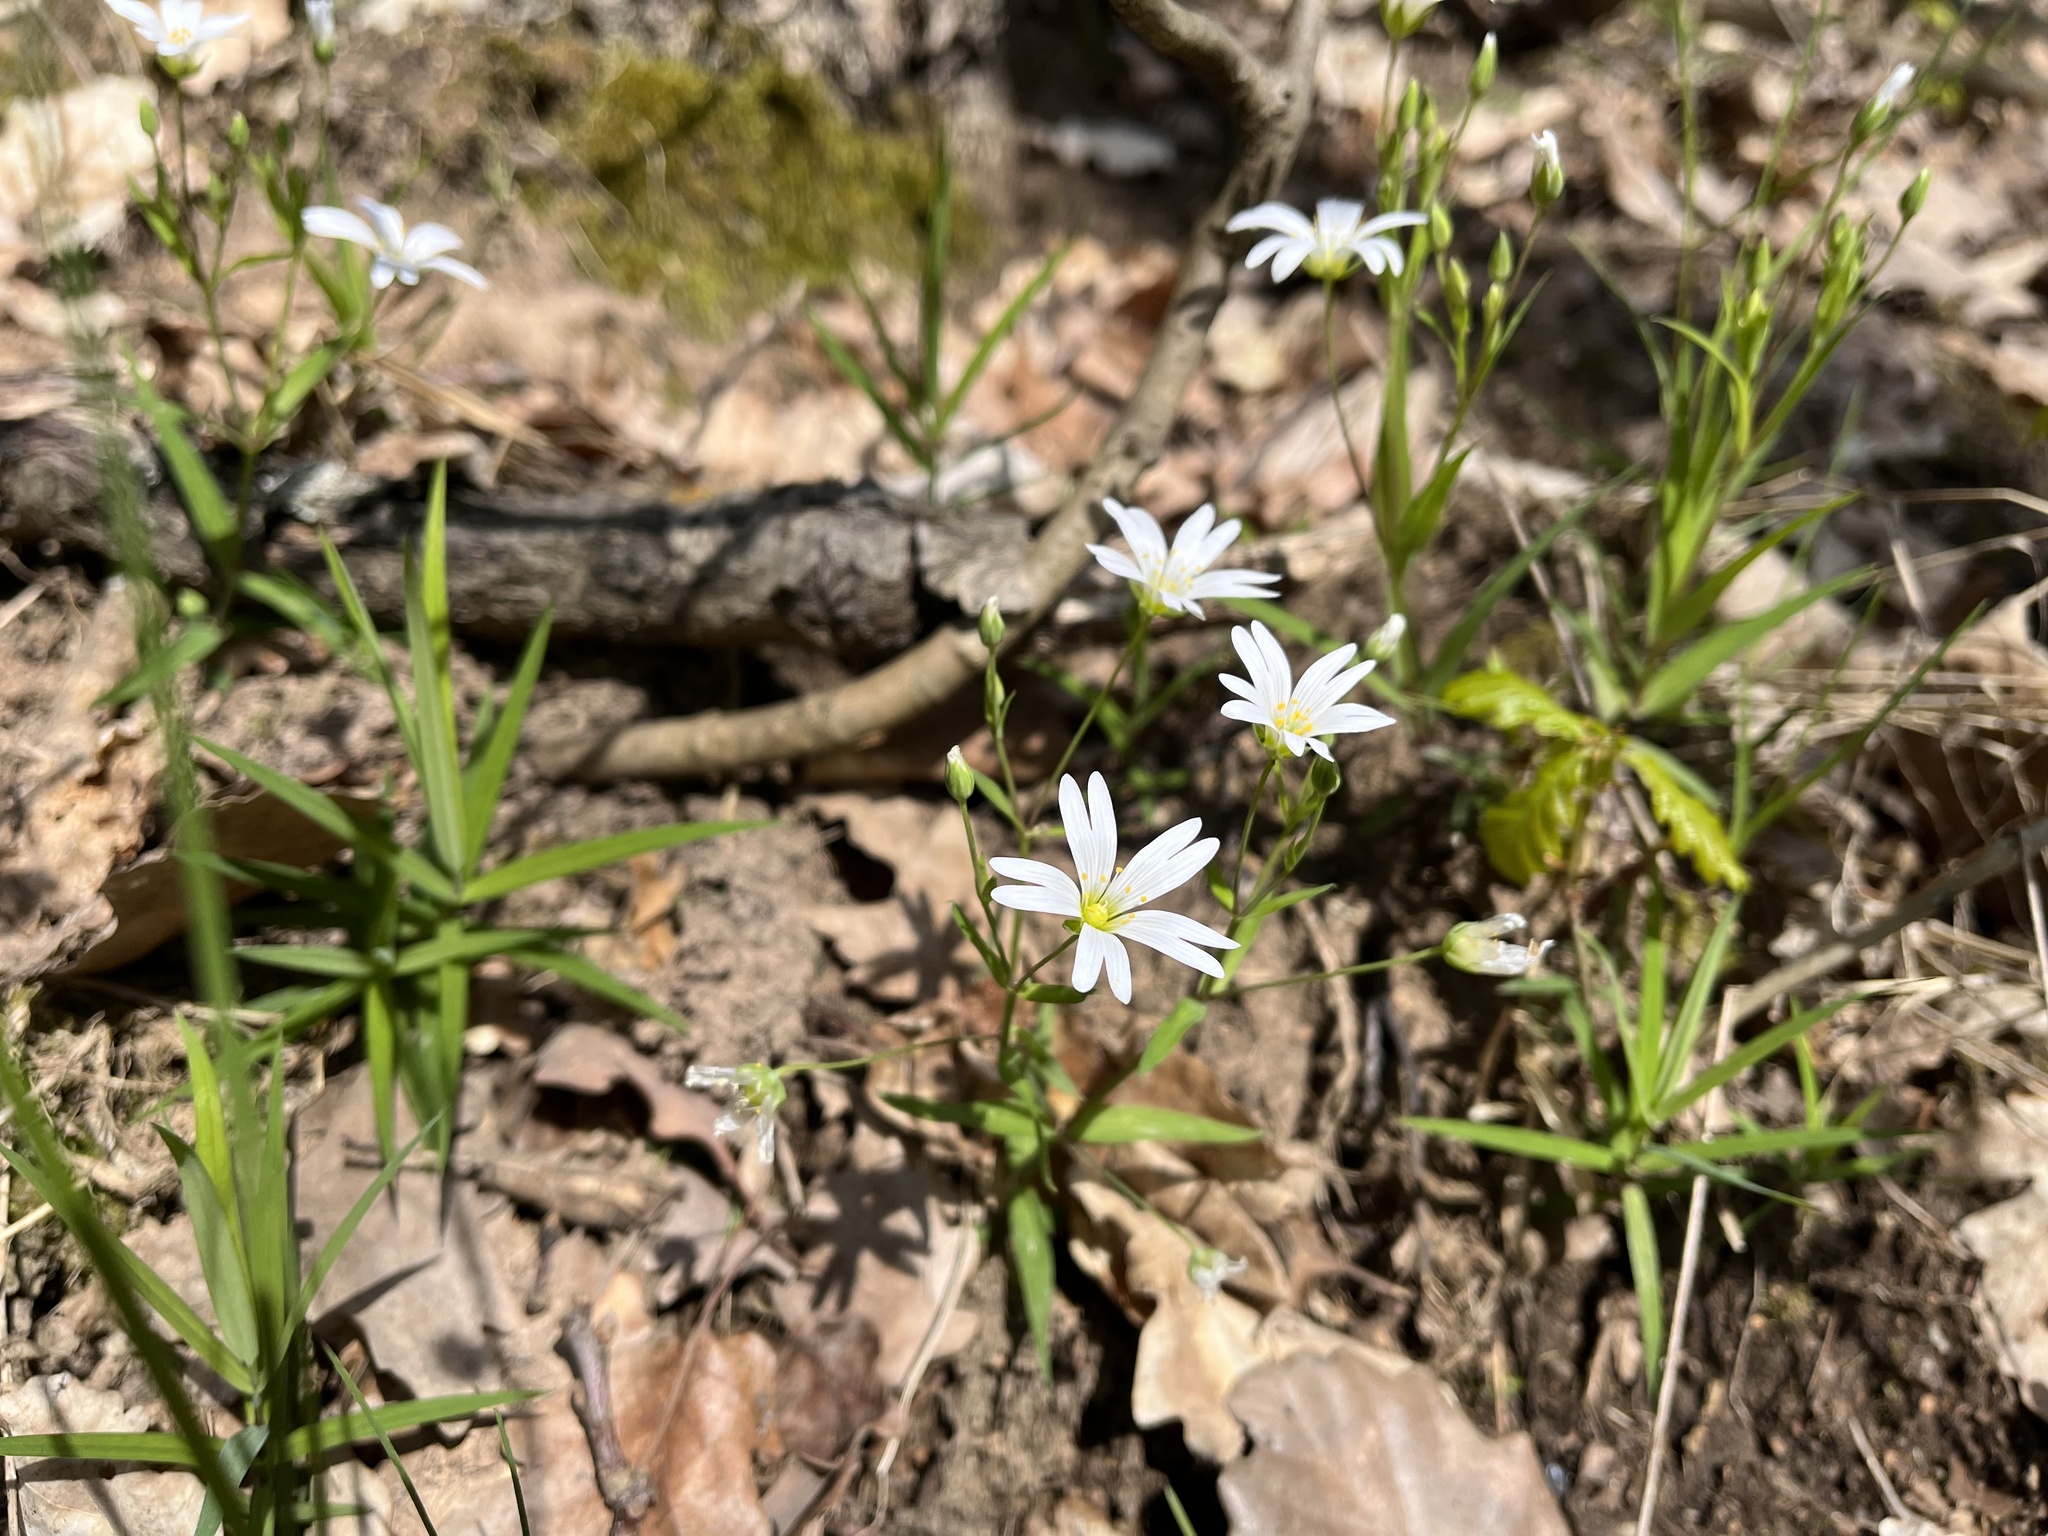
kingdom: Plantae
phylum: Tracheophyta
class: Magnoliopsida
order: Caryophyllales
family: Caryophyllaceae
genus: Rabelera
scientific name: Rabelera holostea
